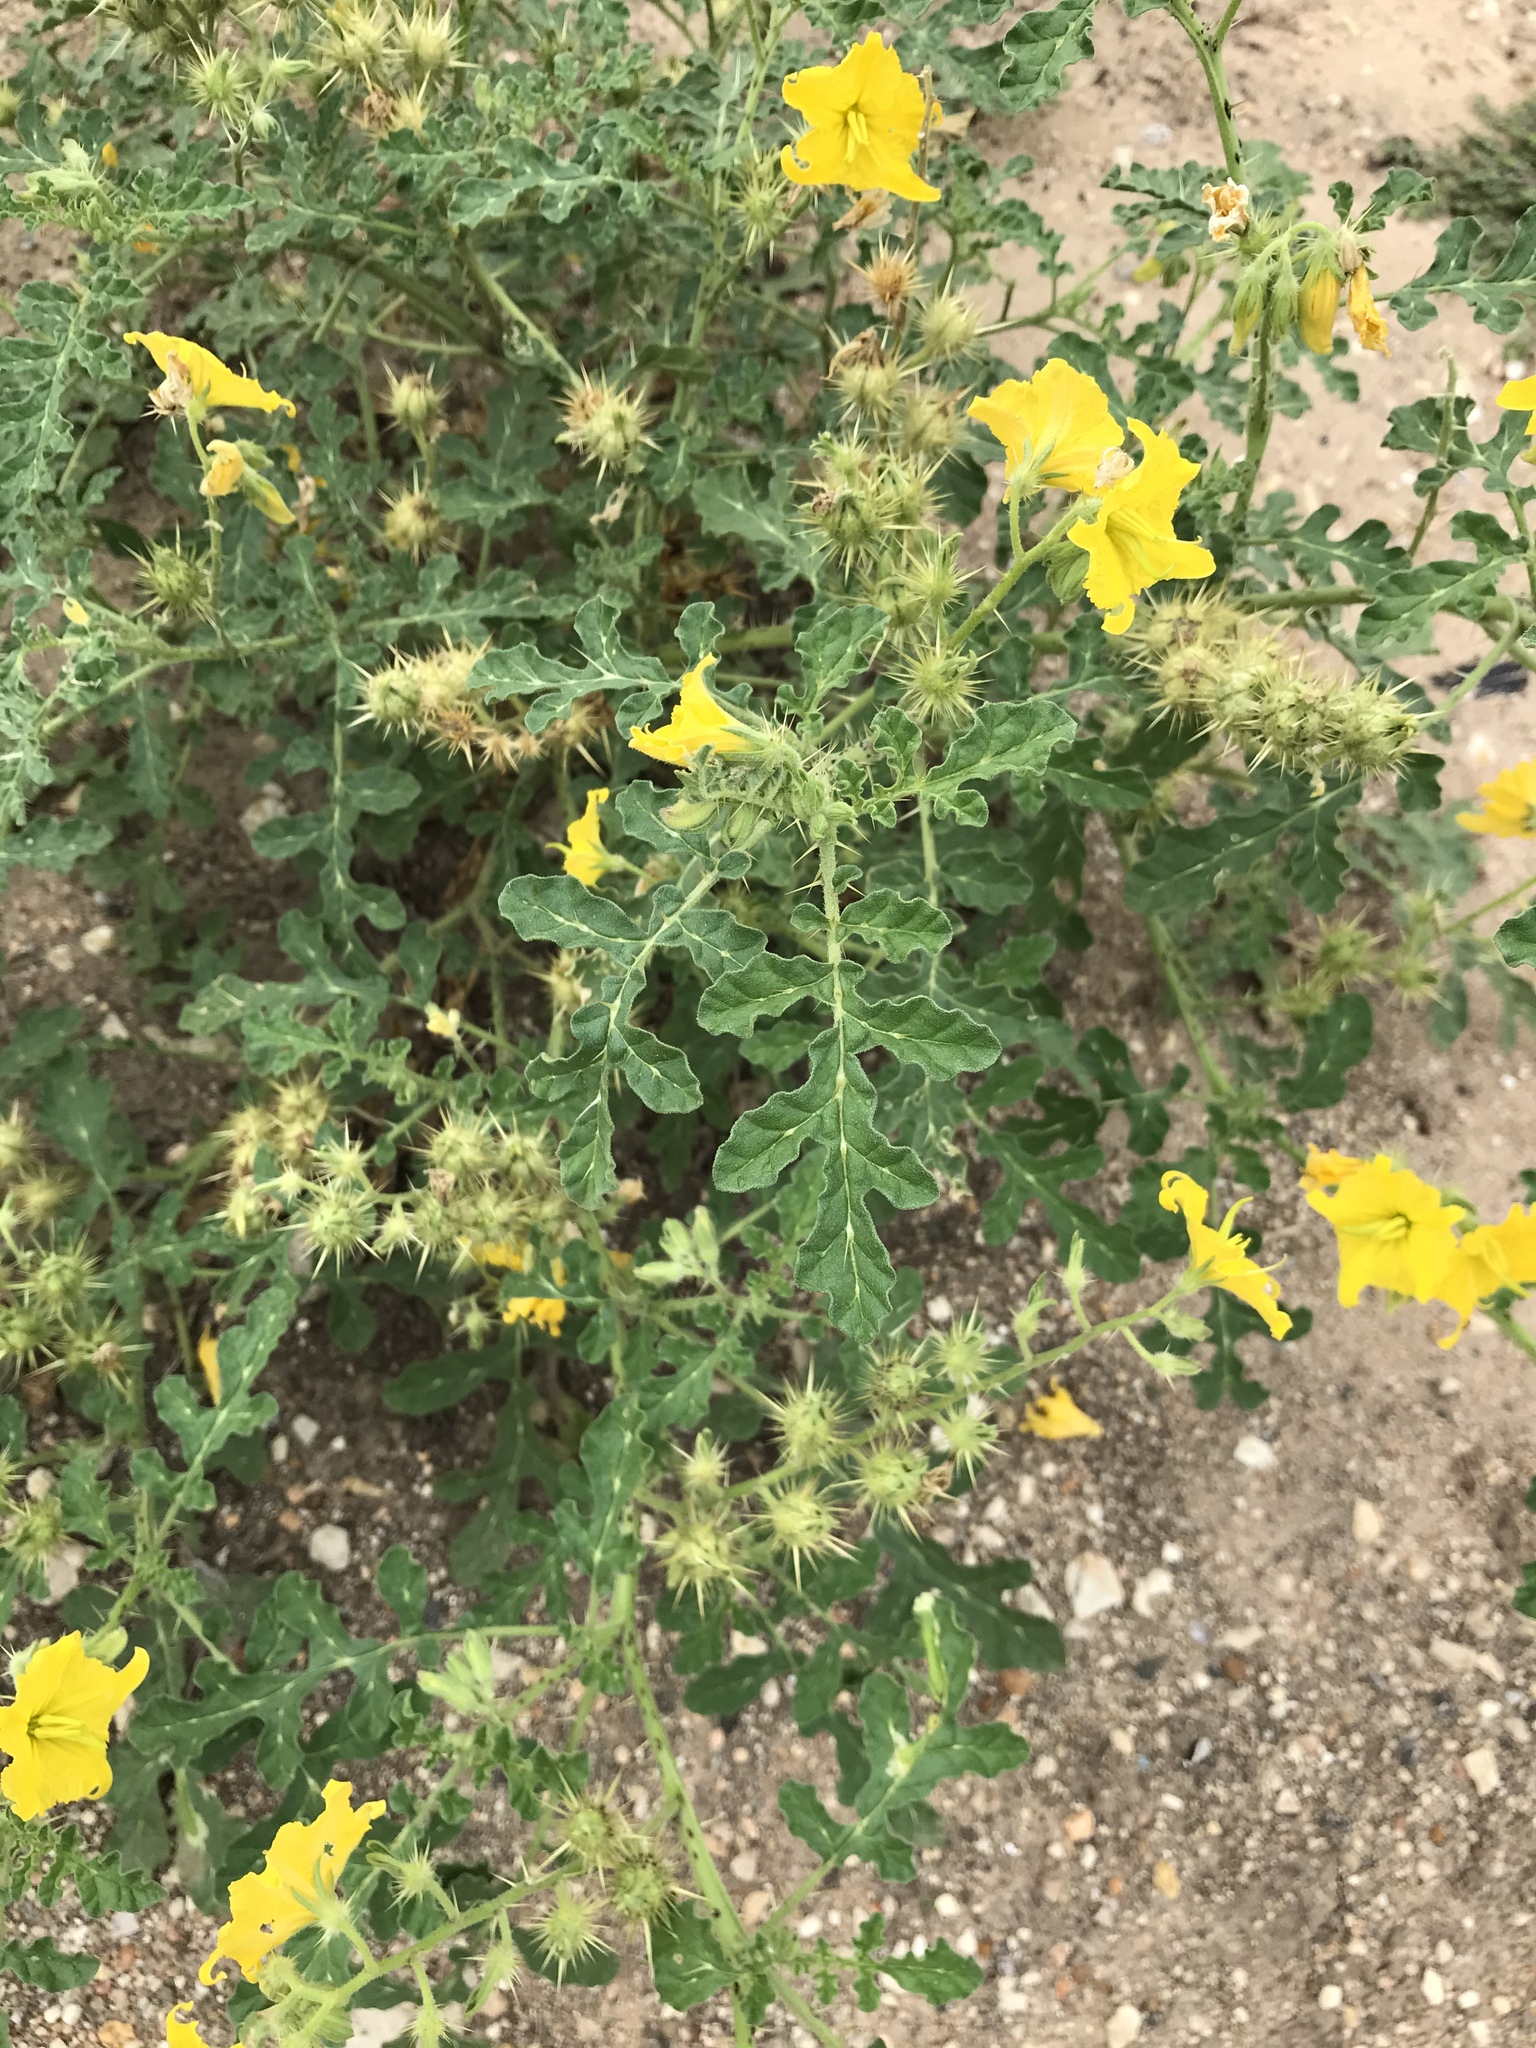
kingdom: Plantae
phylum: Tracheophyta
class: Magnoliopsida
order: Solanales
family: Solanaceae
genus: Solanum
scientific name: Solanum angustifolium
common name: Buffalobur nightshade
